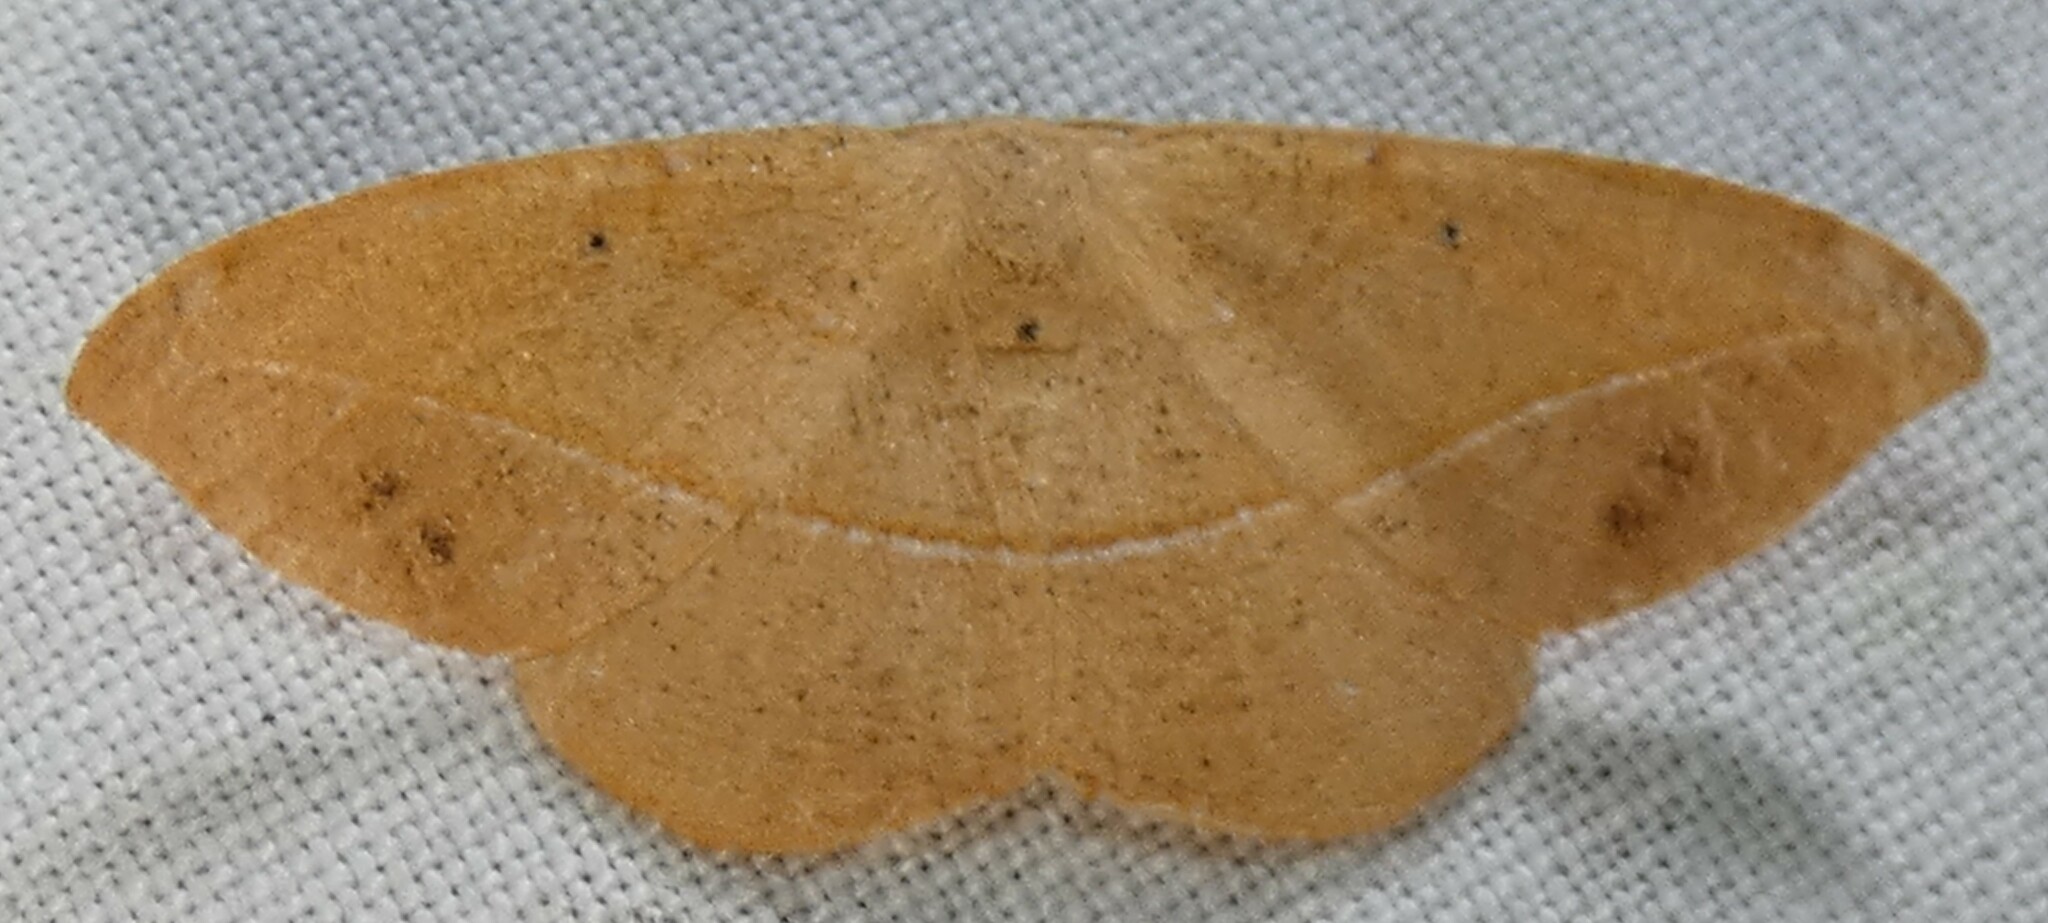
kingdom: Animalia
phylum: Arthropoda
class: Insecta
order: Lepidoptera
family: Geometridae
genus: Patalene
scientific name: Patalene olyzonaria
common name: Juniper geometer moth
